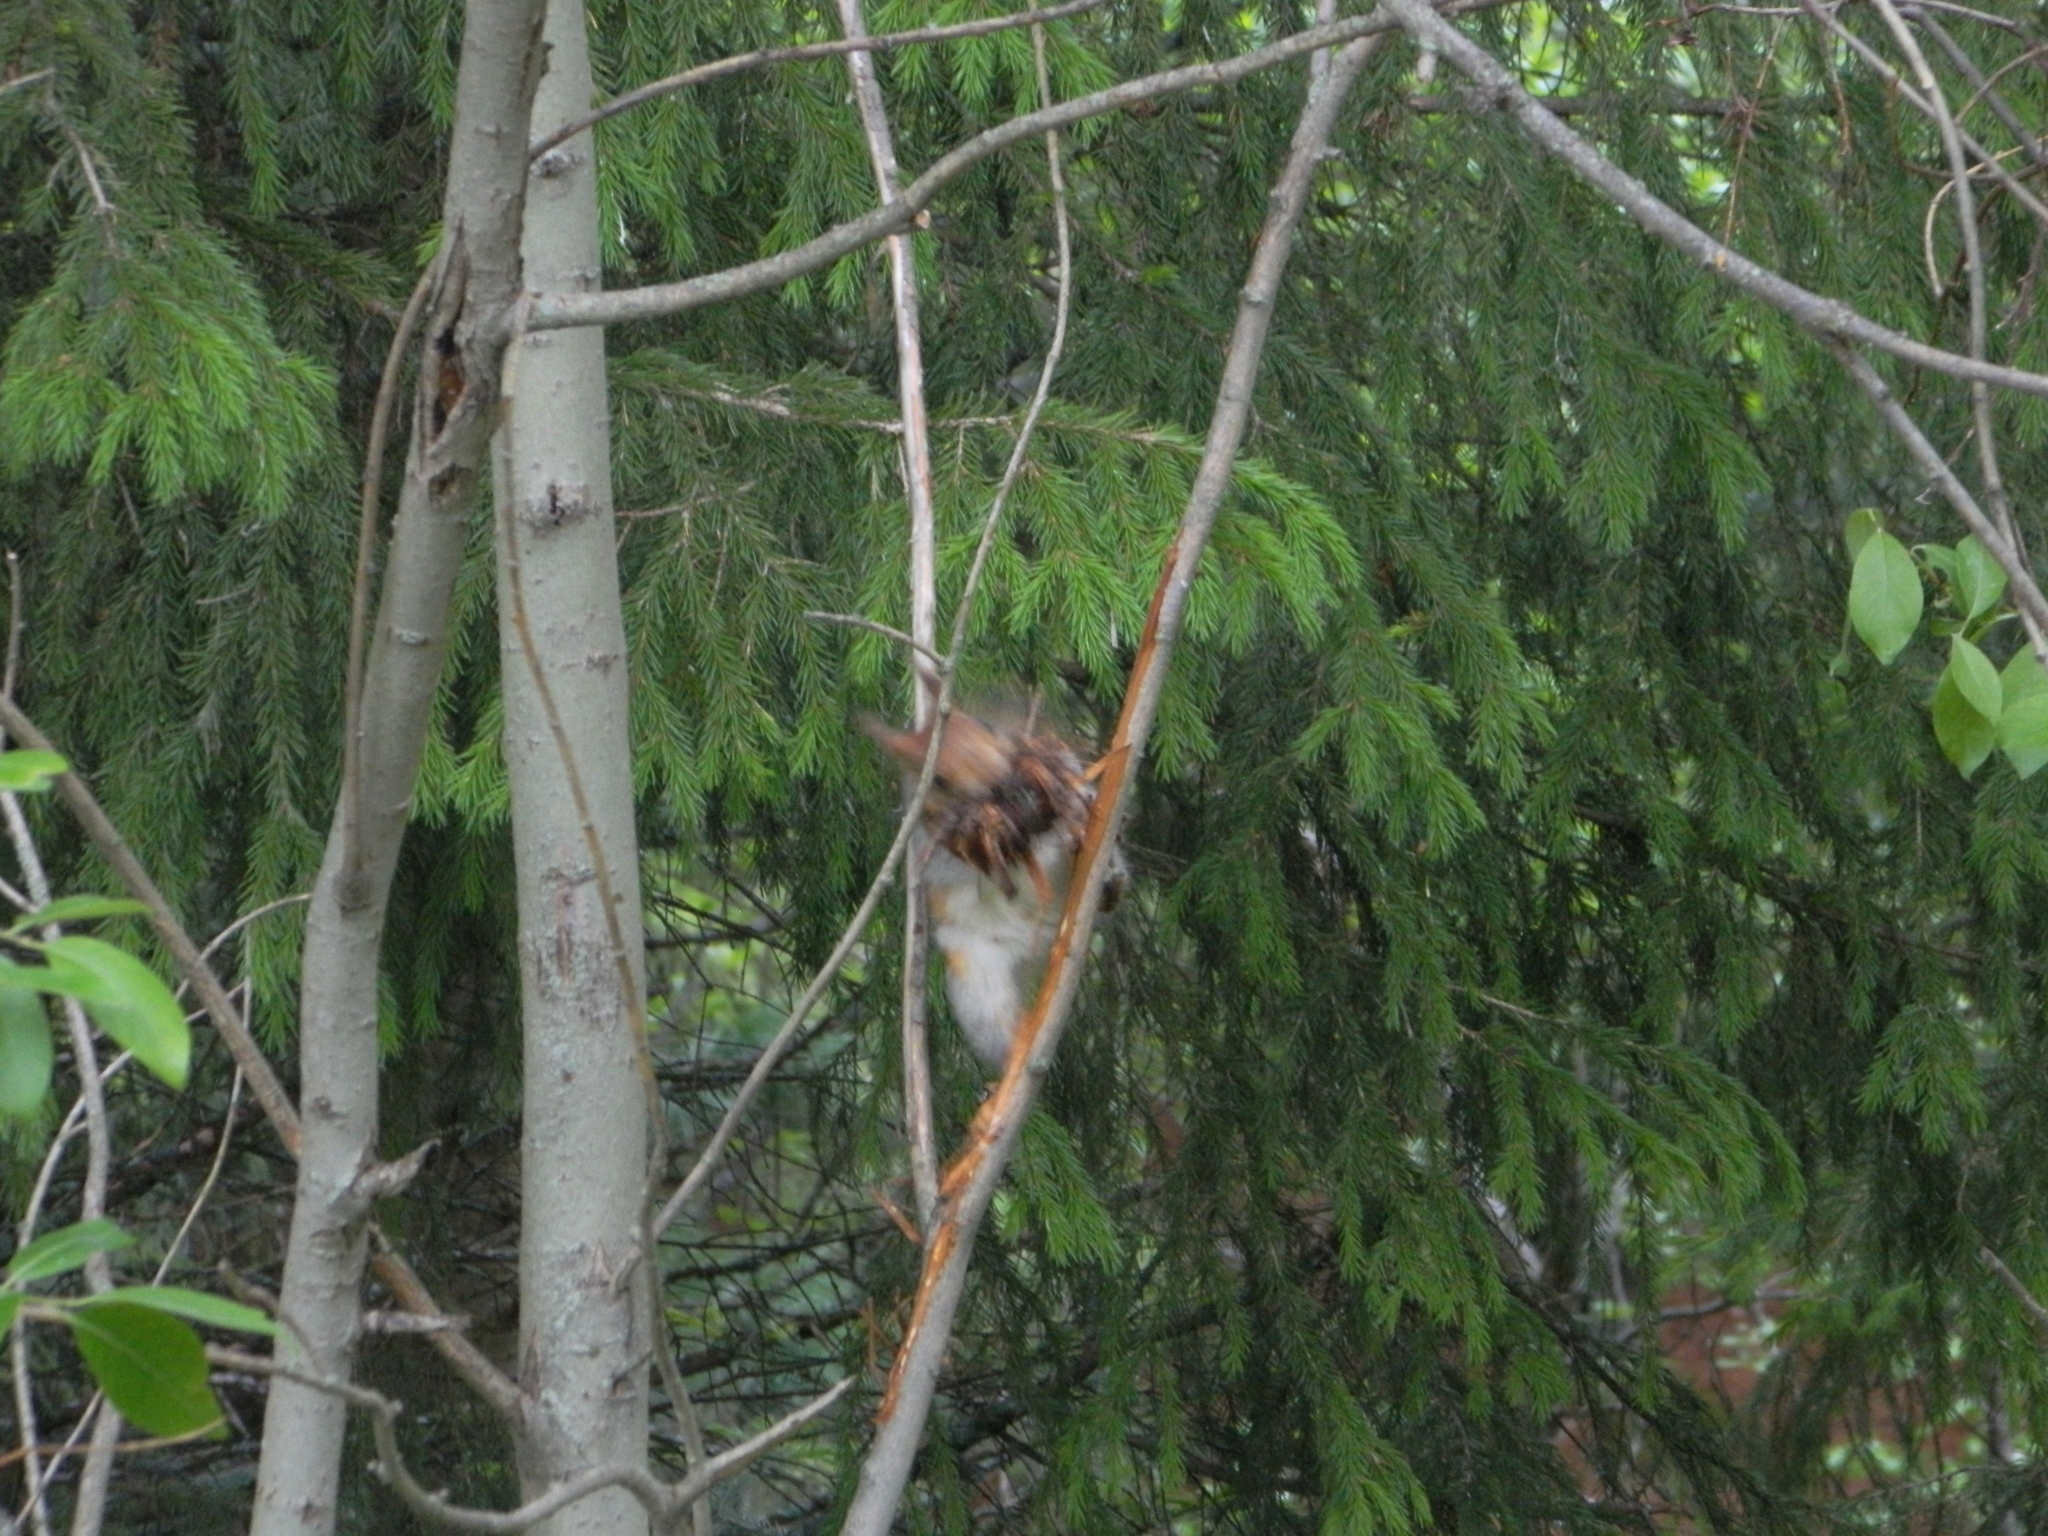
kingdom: Animalia
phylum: Chordata
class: Mammalia
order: Rodentia
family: Sciuridae
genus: Sciurus
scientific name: Sciurus vulgaris
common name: Eurasian red squirrel
